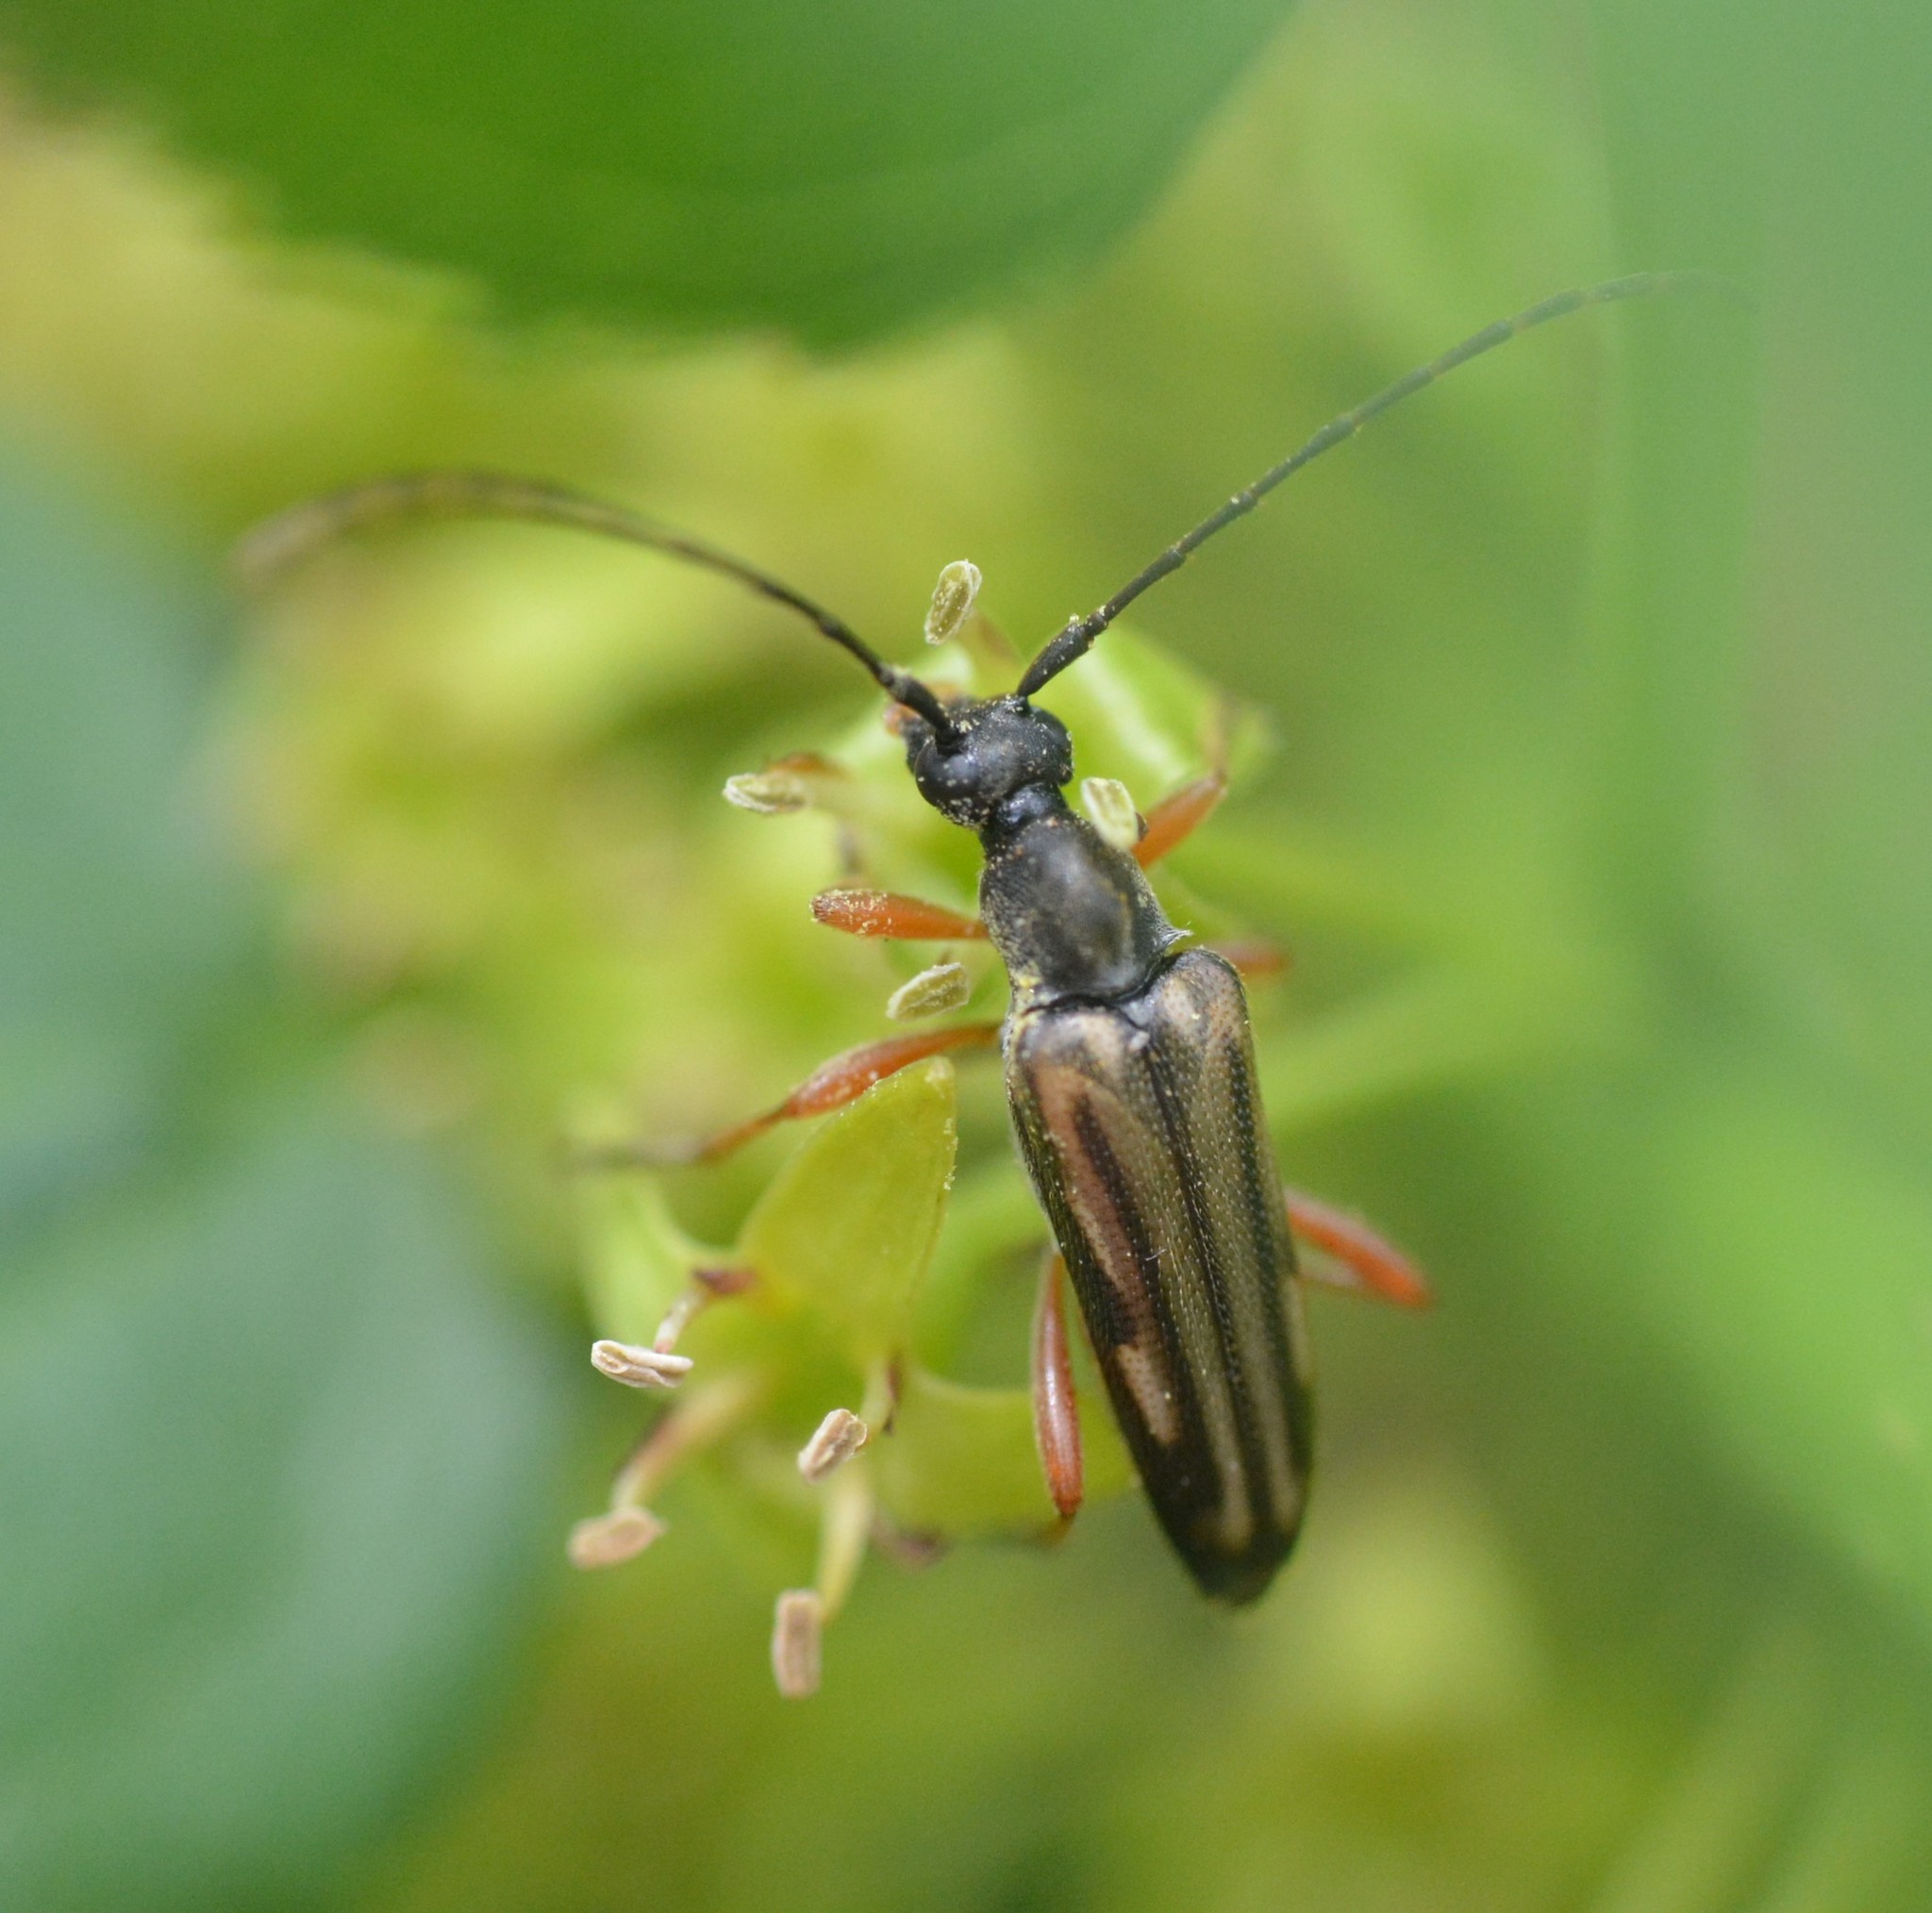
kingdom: Animalia
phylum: Arthropoda
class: Insecta
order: Coleoptera
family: Cerambycidae
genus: Analeptura
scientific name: Analeptura lineola
